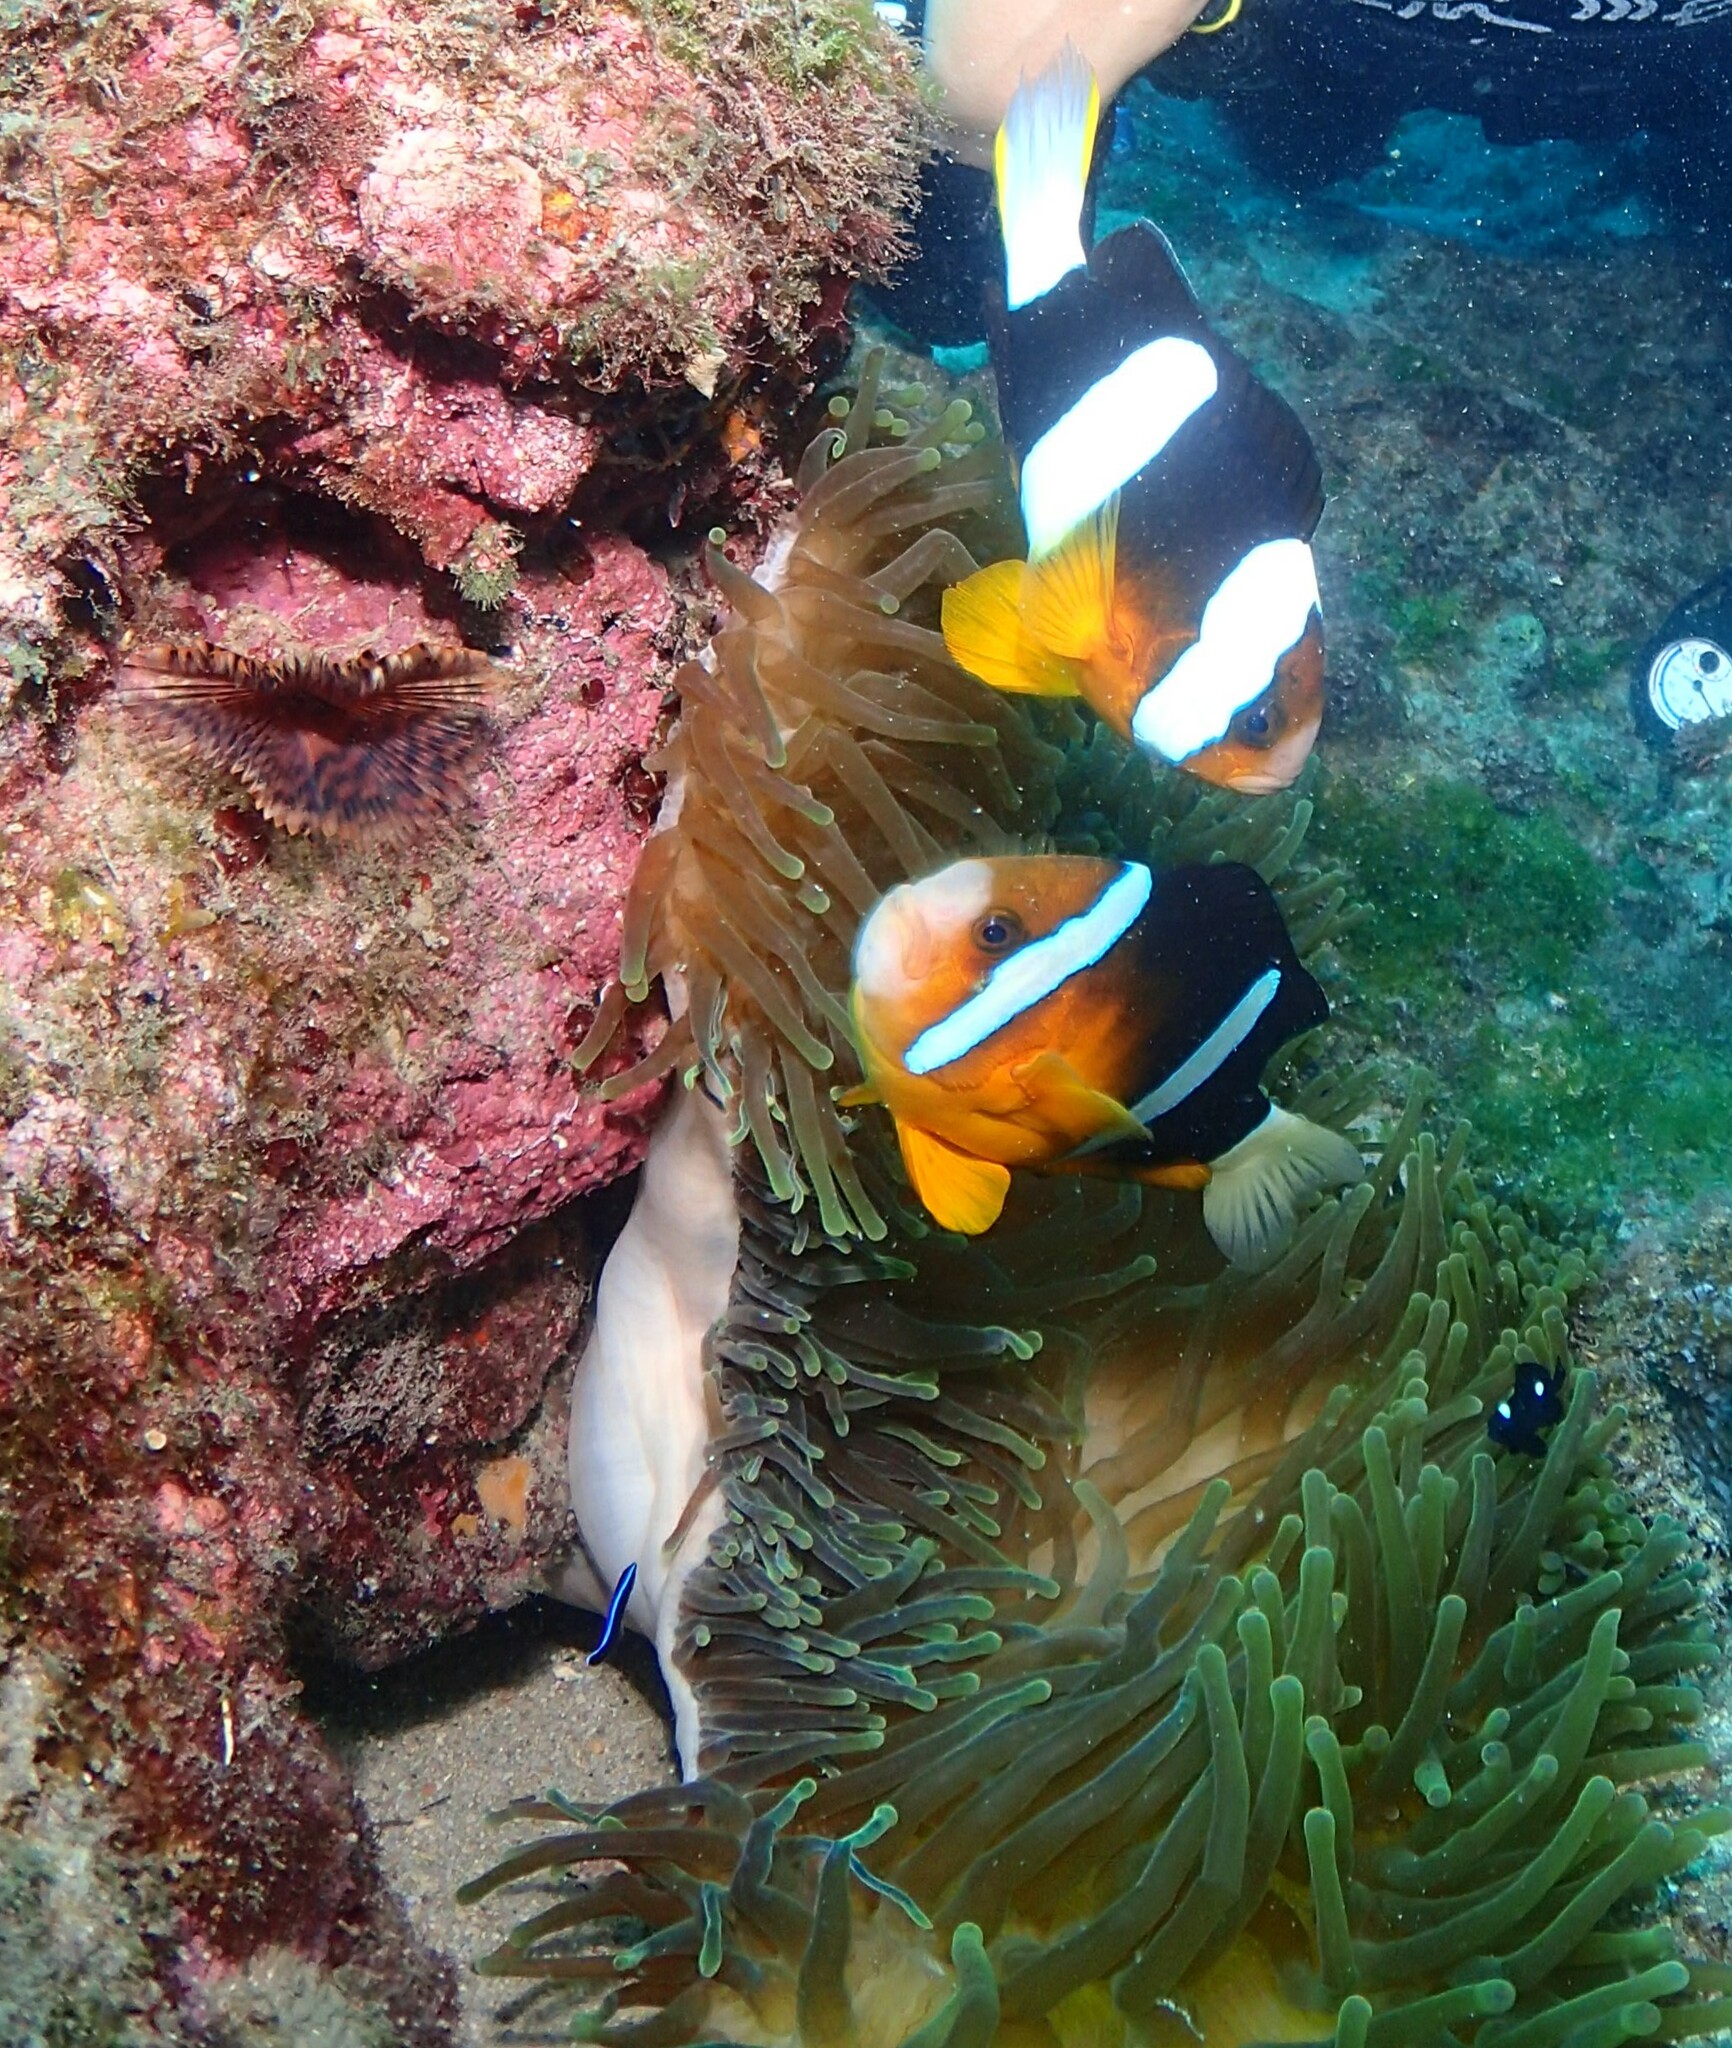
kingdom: Animalia
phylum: Chordata
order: Perciformes
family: Pomacentridae
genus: Amphiprion
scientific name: Amphiprion clarkii
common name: Clark's anemonefish
